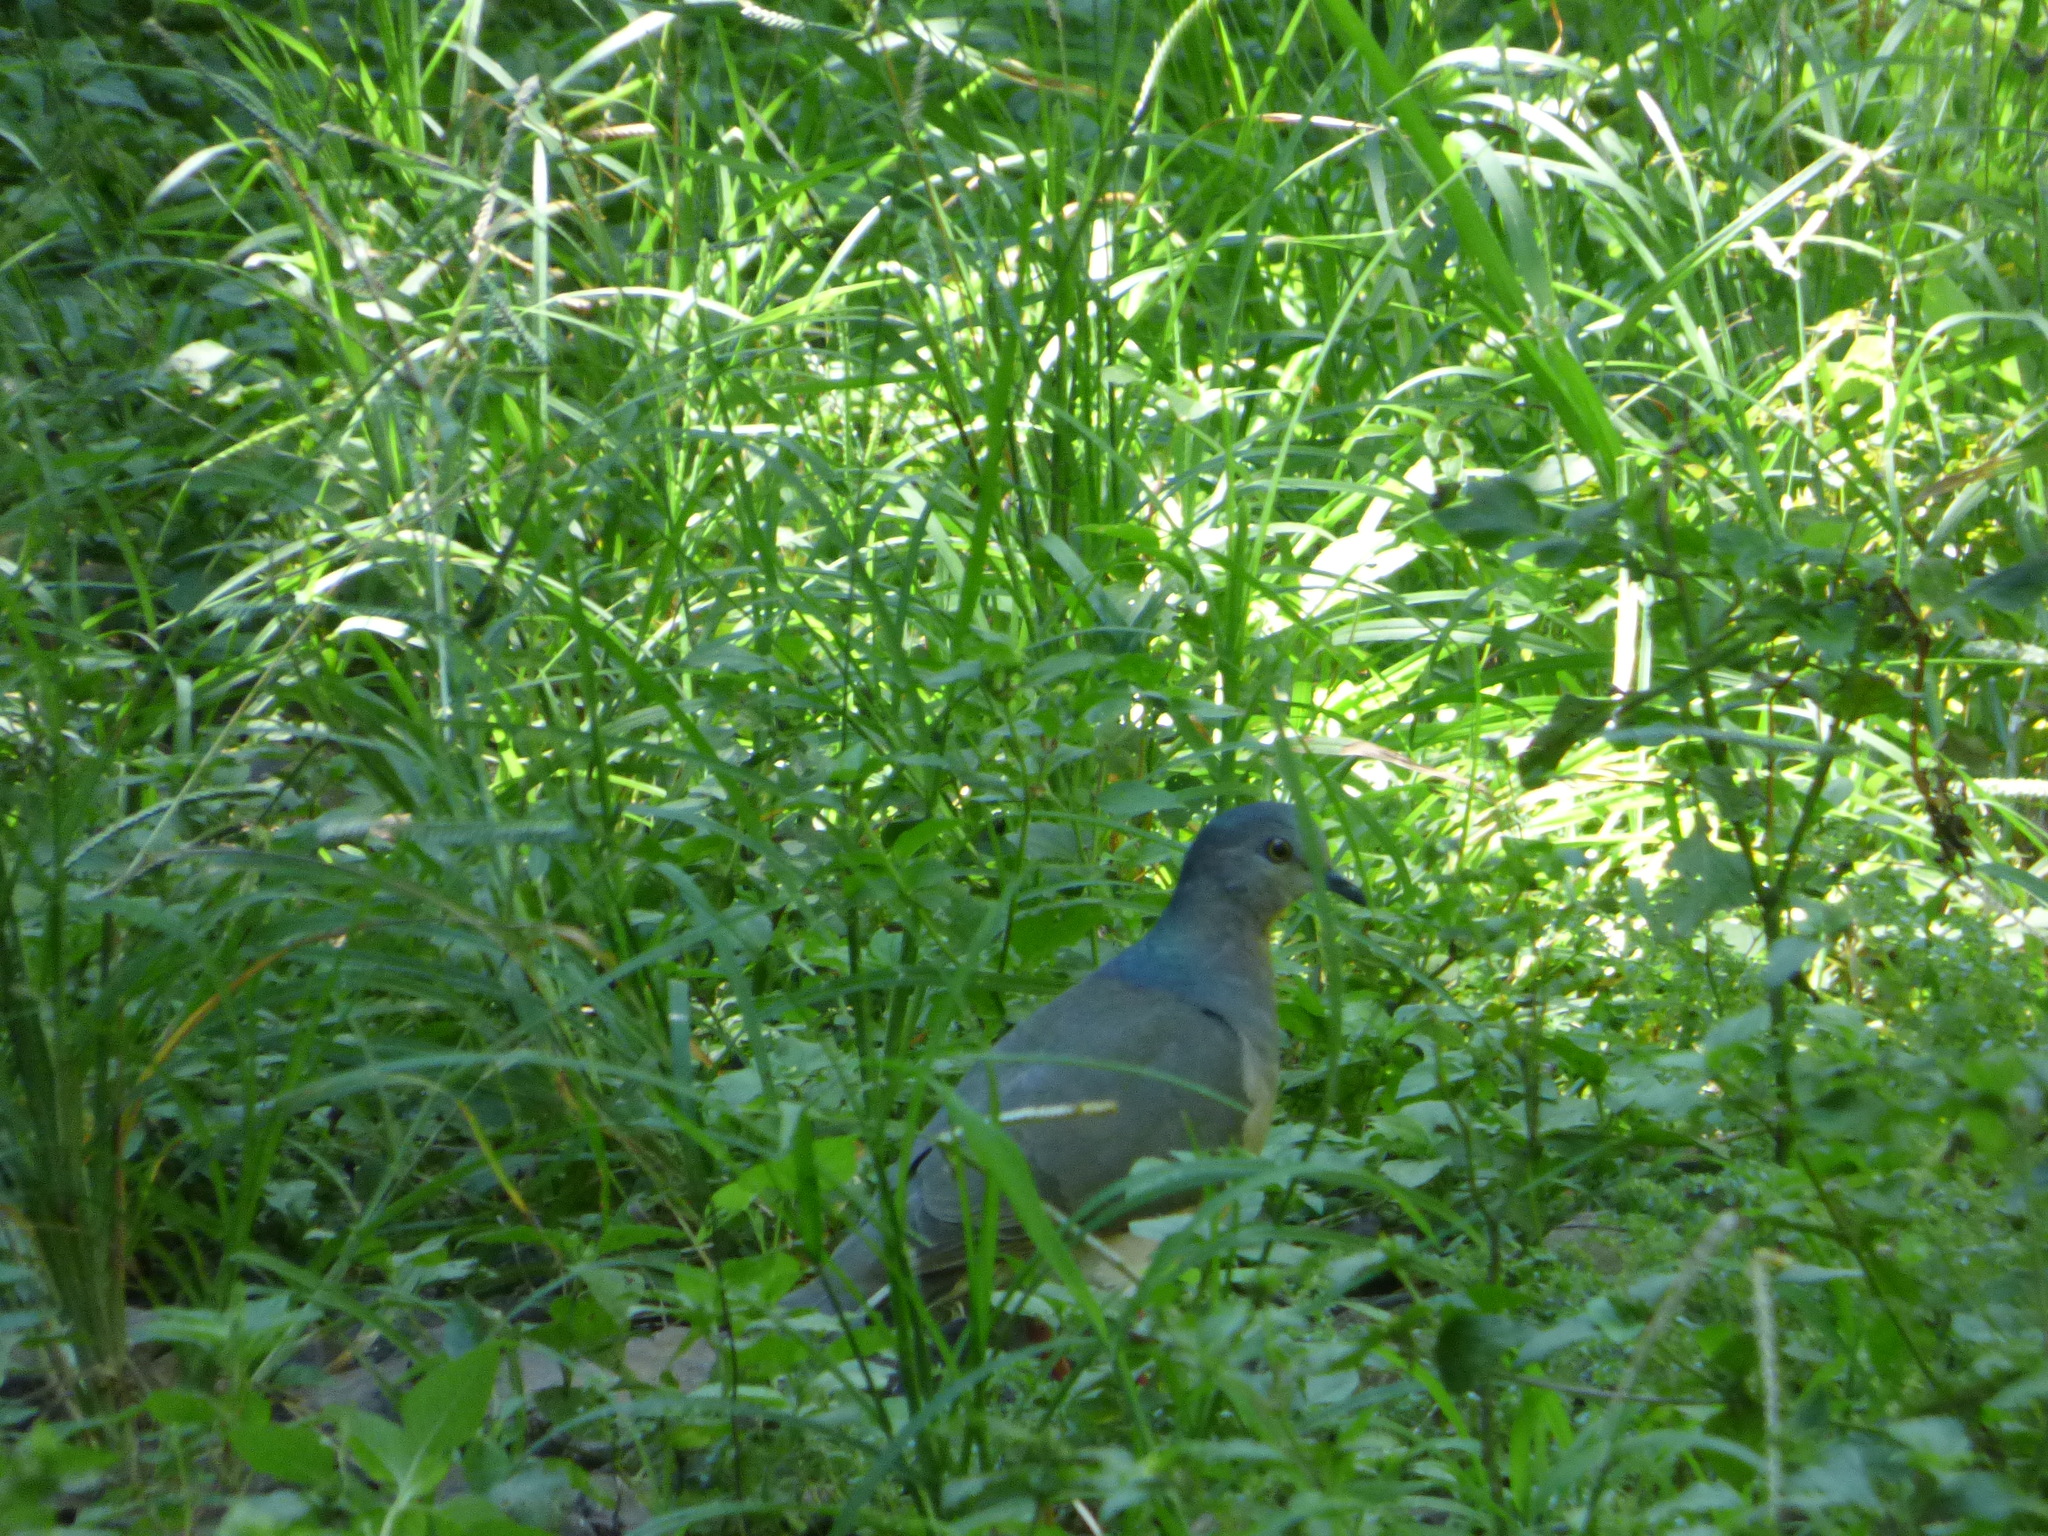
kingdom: Animalia
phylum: Chordata
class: Aves
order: Columbiformes
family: Columbidae
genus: Leptotila
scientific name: Leptotila verreauxi
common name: White-tipped dove
